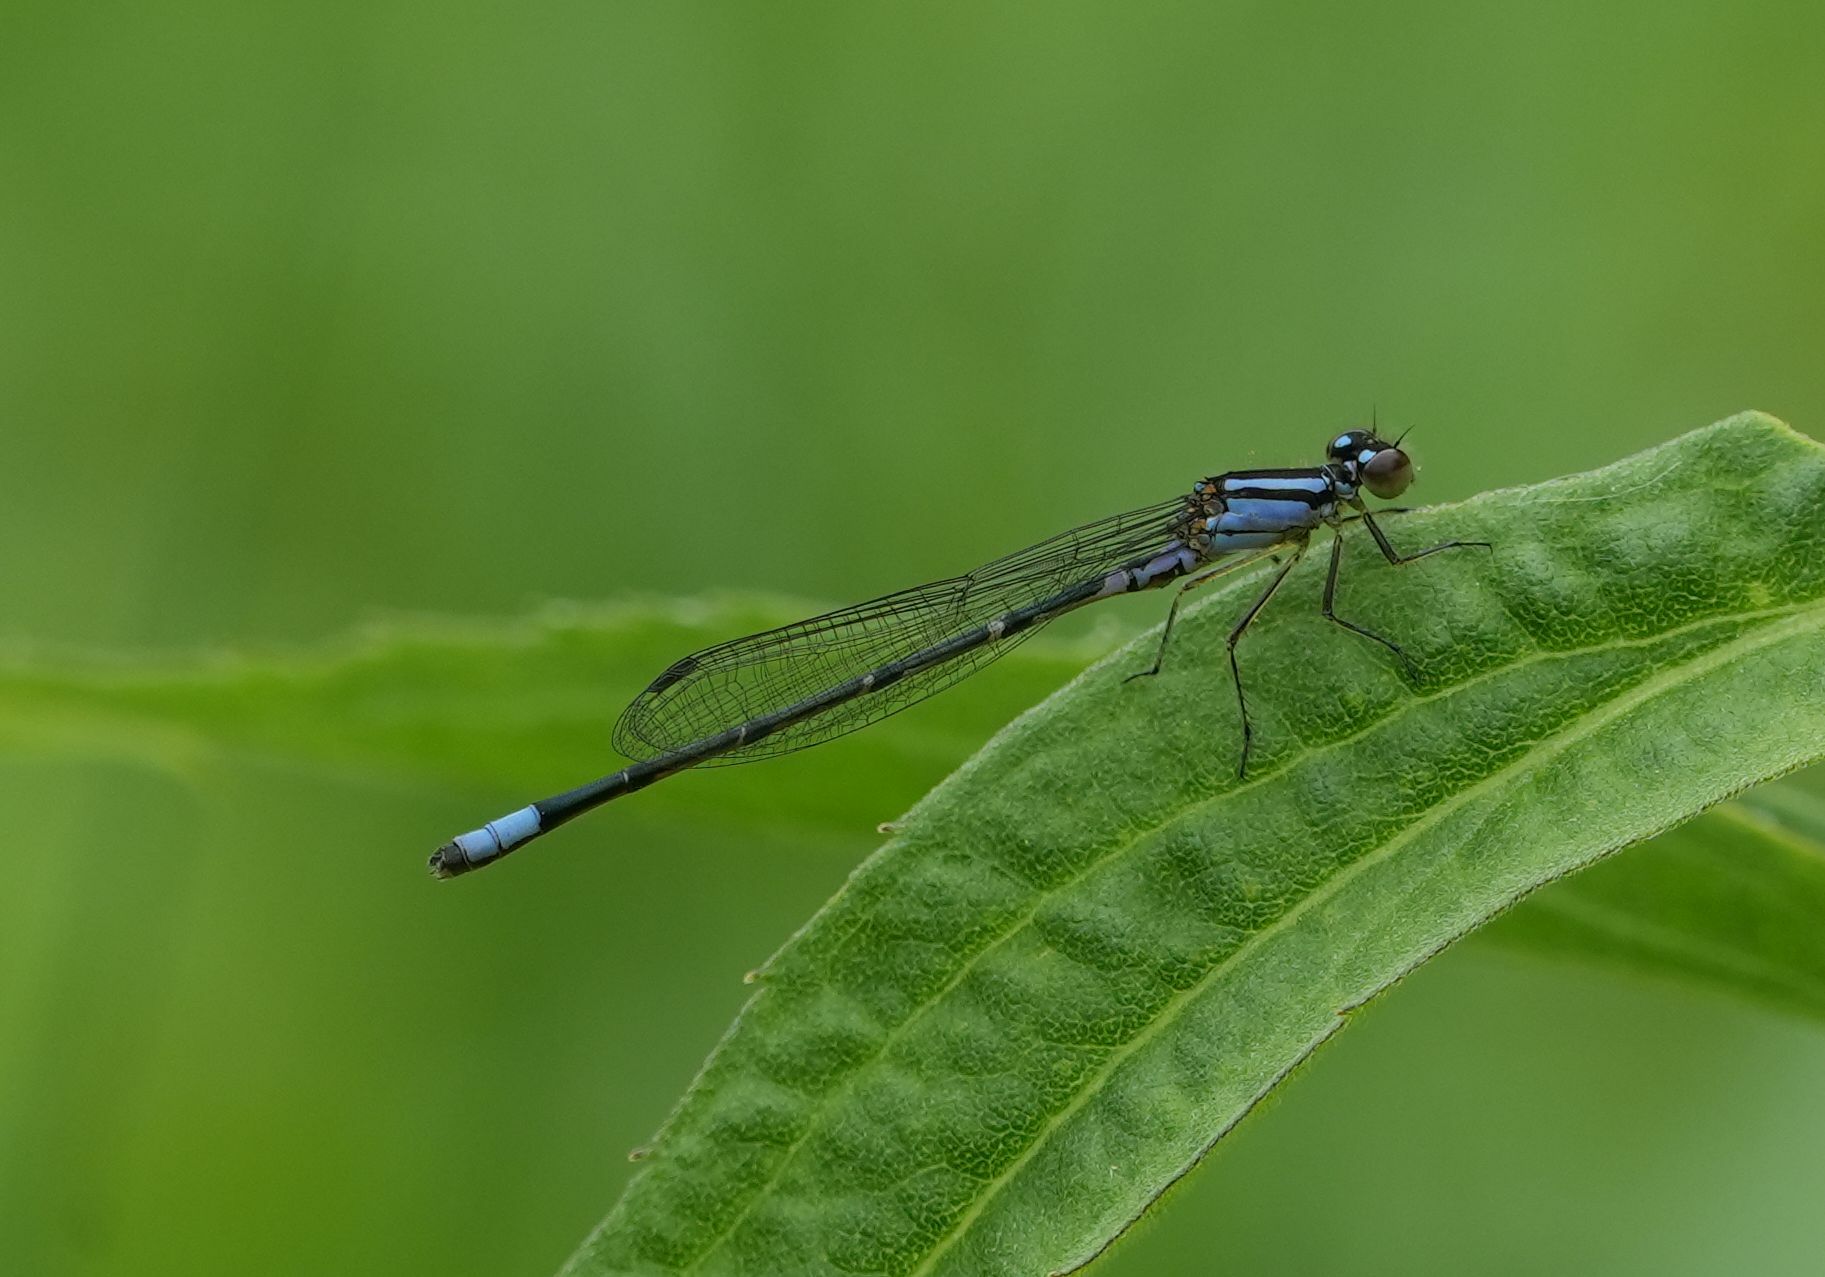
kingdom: Animalia
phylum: Arthropoda
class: Insecta
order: Odonata
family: Coenagrionidae
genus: Enallagma
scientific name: Enallagma geminatum
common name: Skimming bluet
